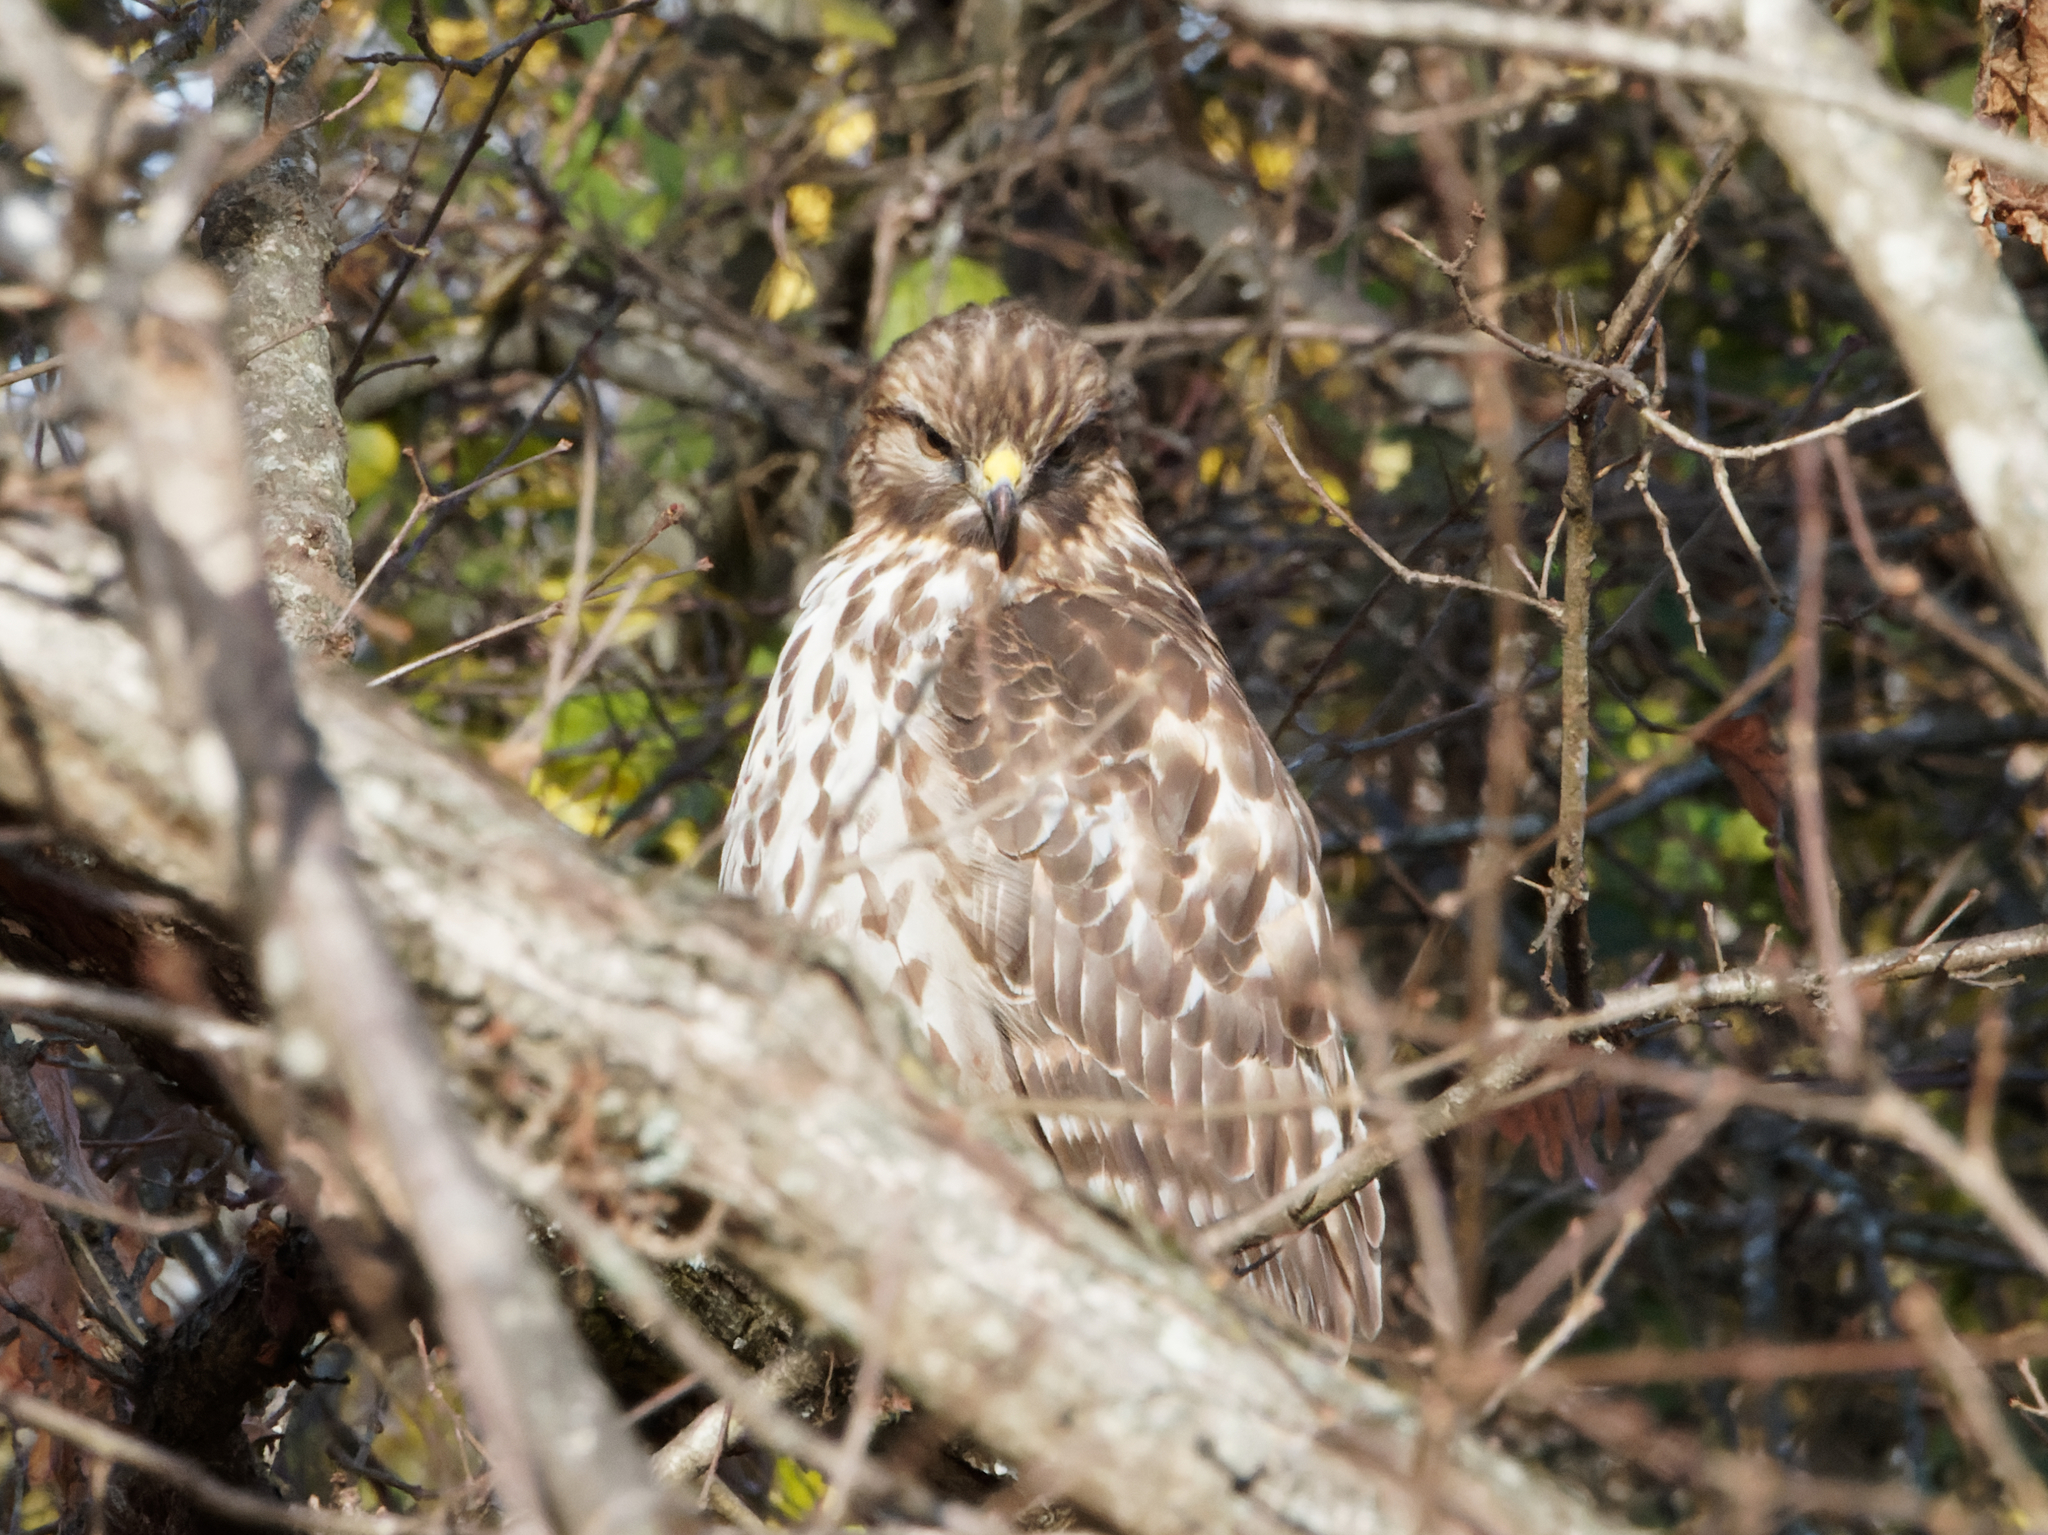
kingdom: Animalia
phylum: Chordata
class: Aves
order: Accipitriformes
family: Accipitridae
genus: Buteo
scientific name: Buteo lineatus
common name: Red-shouldered hawk
